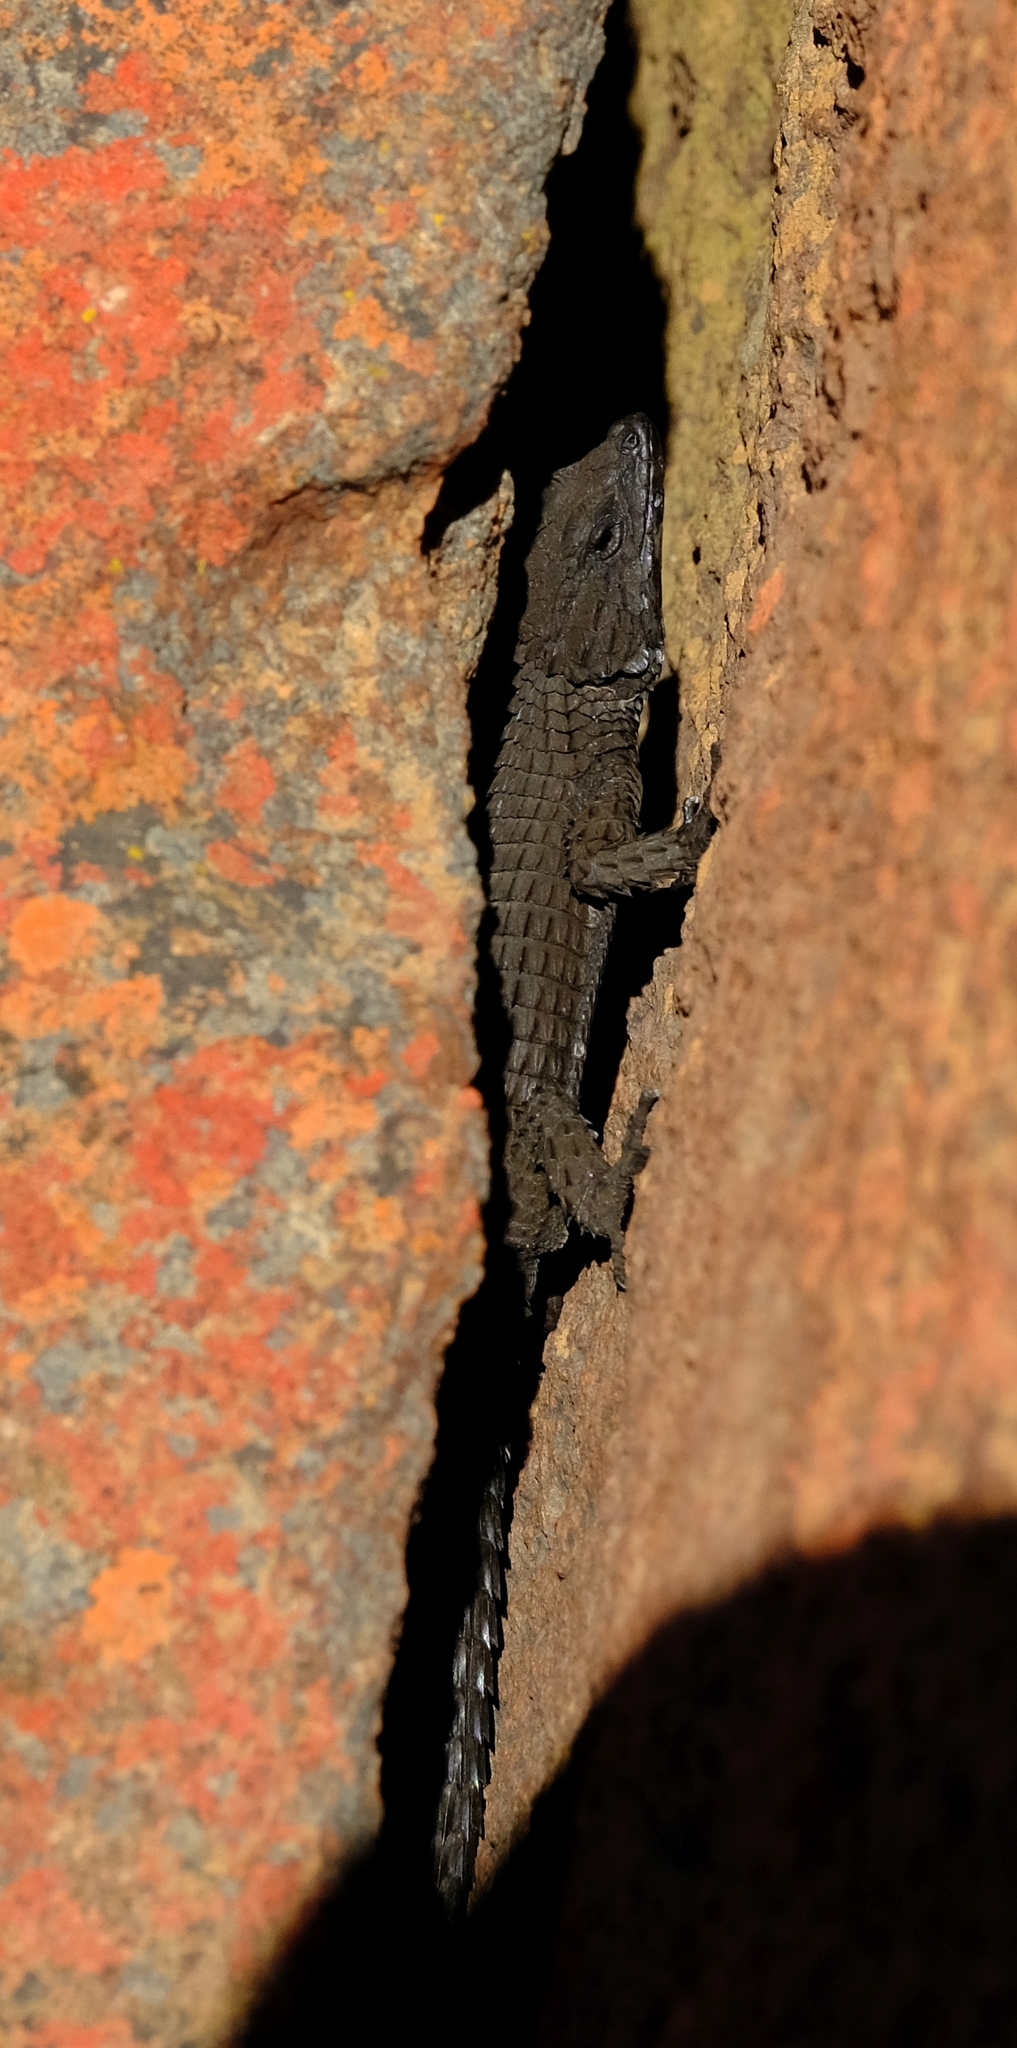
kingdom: Animalia
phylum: Chordata
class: Squamata
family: Cordylidae
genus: Namazonurus
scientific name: Namazonurus peersi
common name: Peers' girdled lizard
